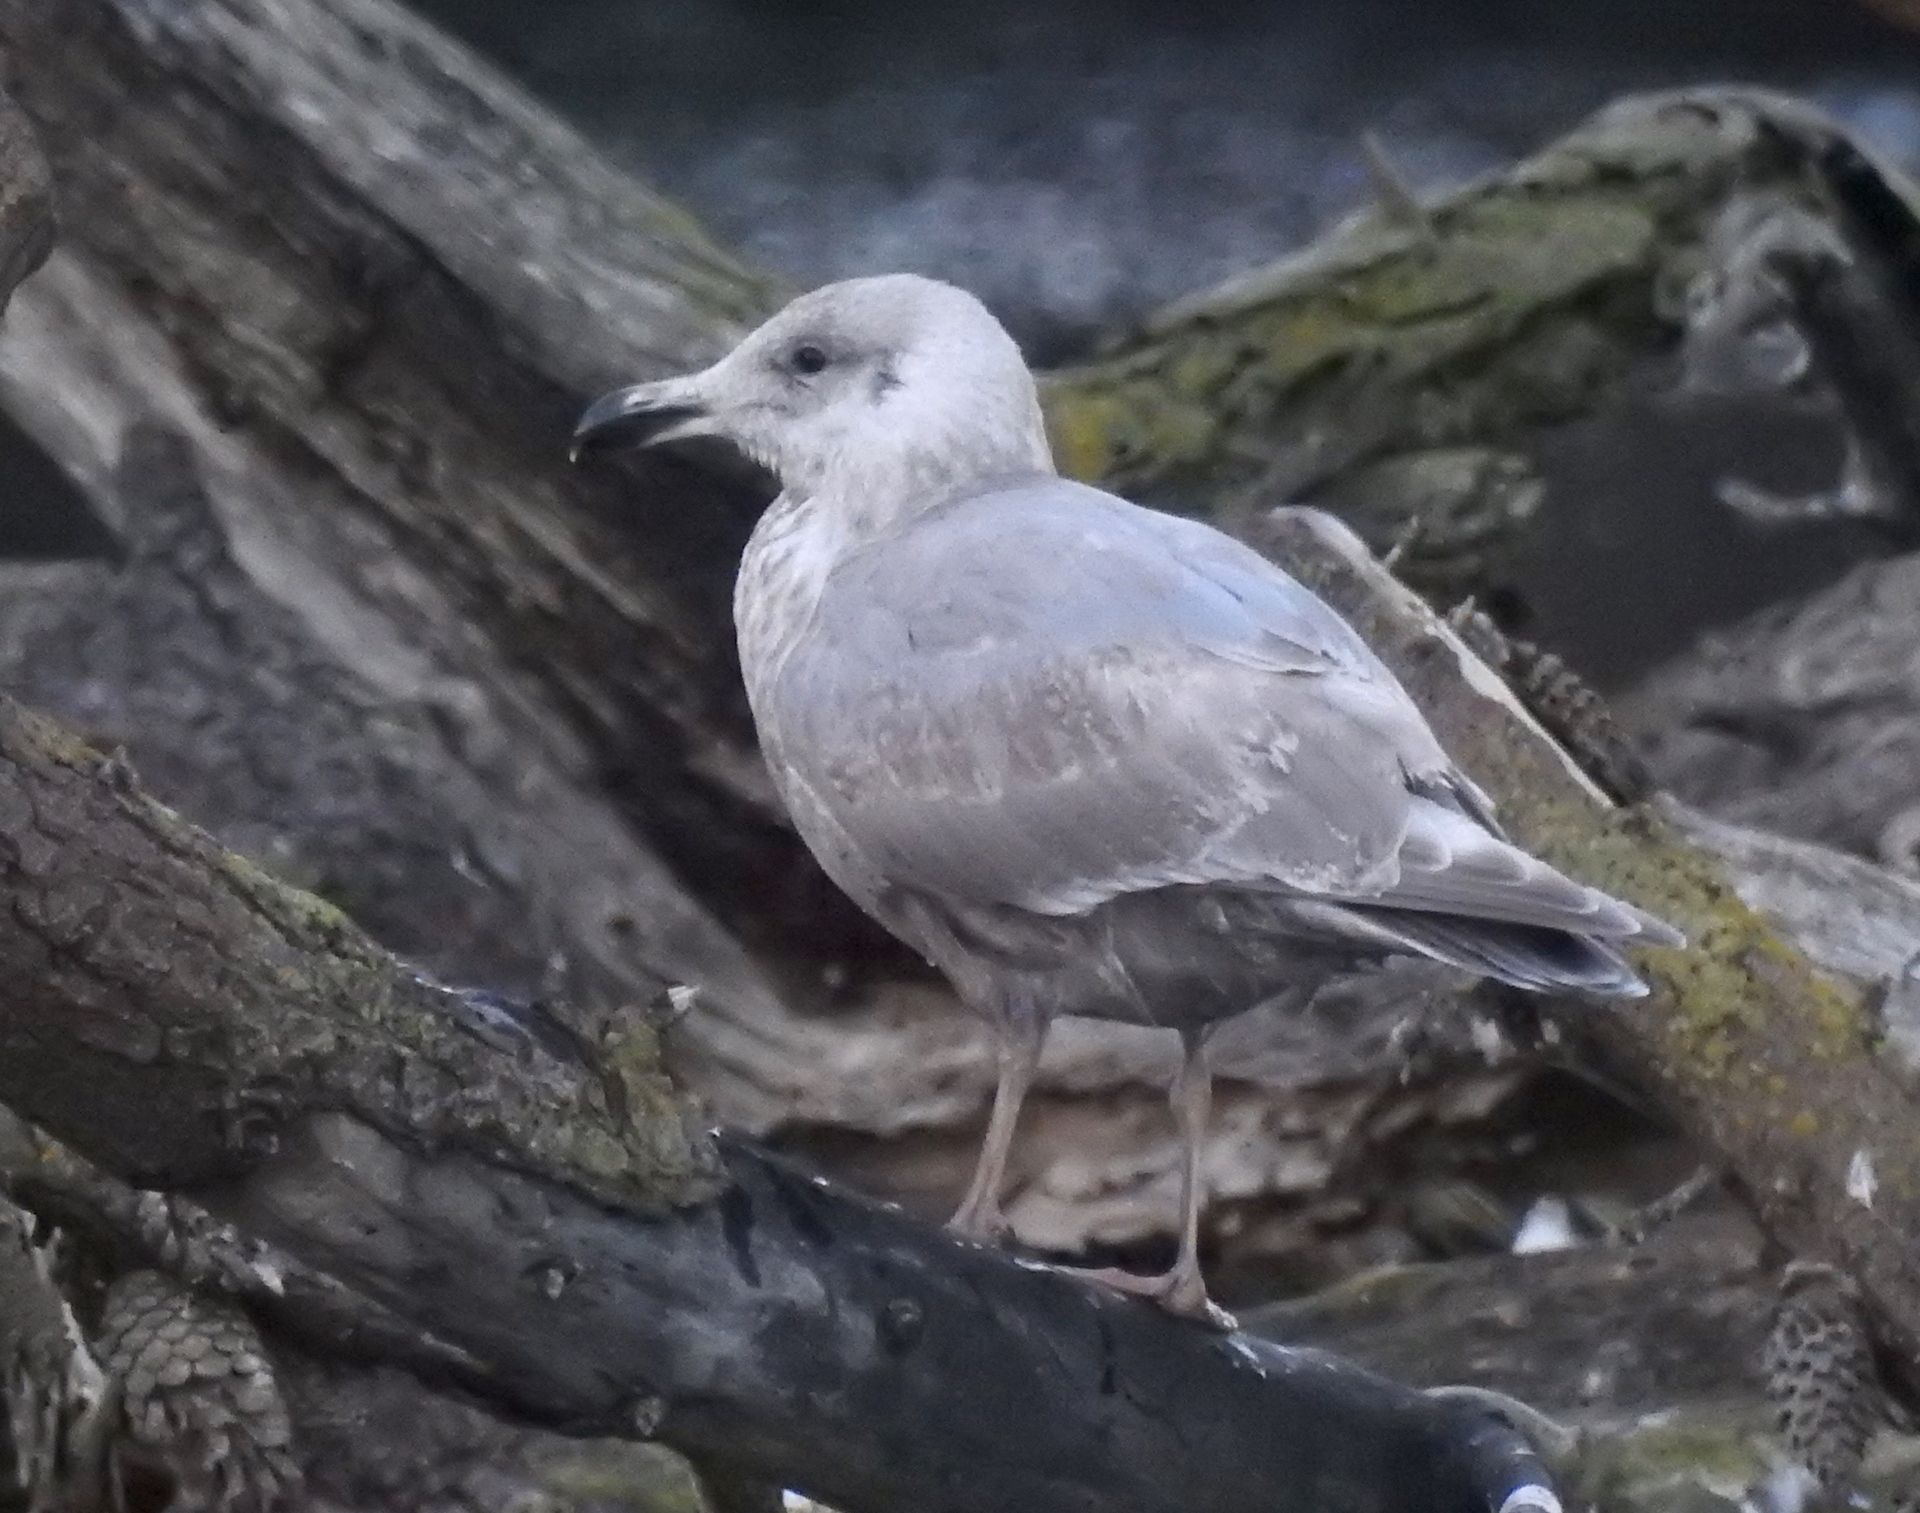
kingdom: Animalia
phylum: Chordata
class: Aves
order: Charadriiformes
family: Laridae
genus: Larus
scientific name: Larus
